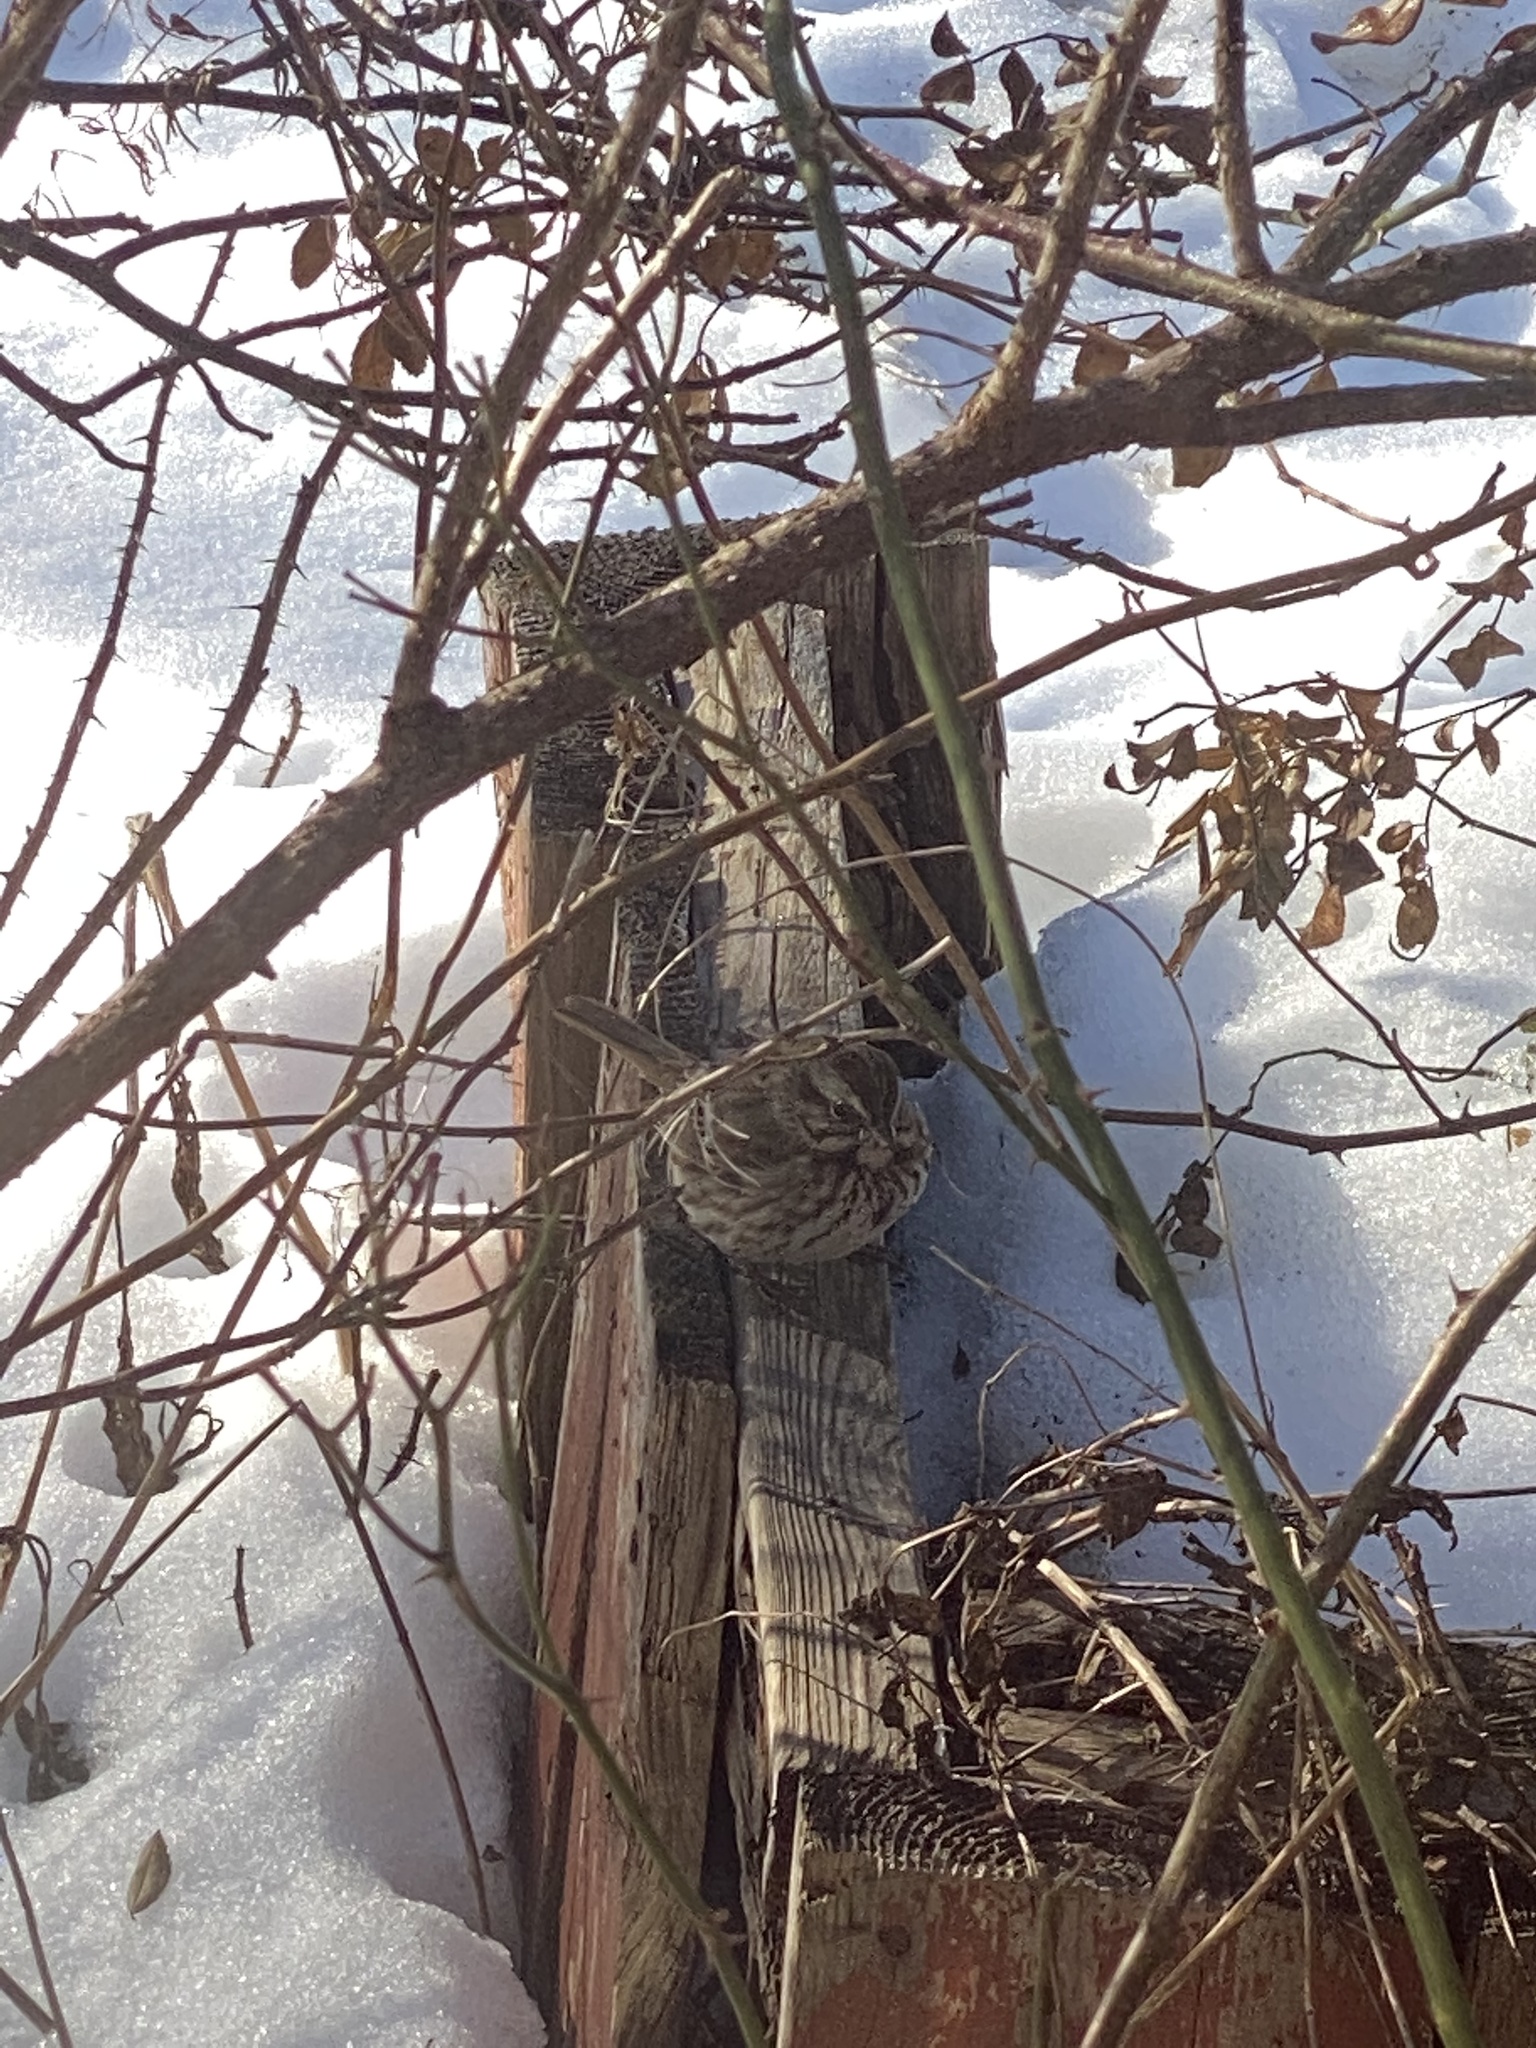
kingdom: Animalia
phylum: Chordata
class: Aves
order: Passeriformes
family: Passerellidae
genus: Melospiza
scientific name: Melospiza melodia
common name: Song sparrow
